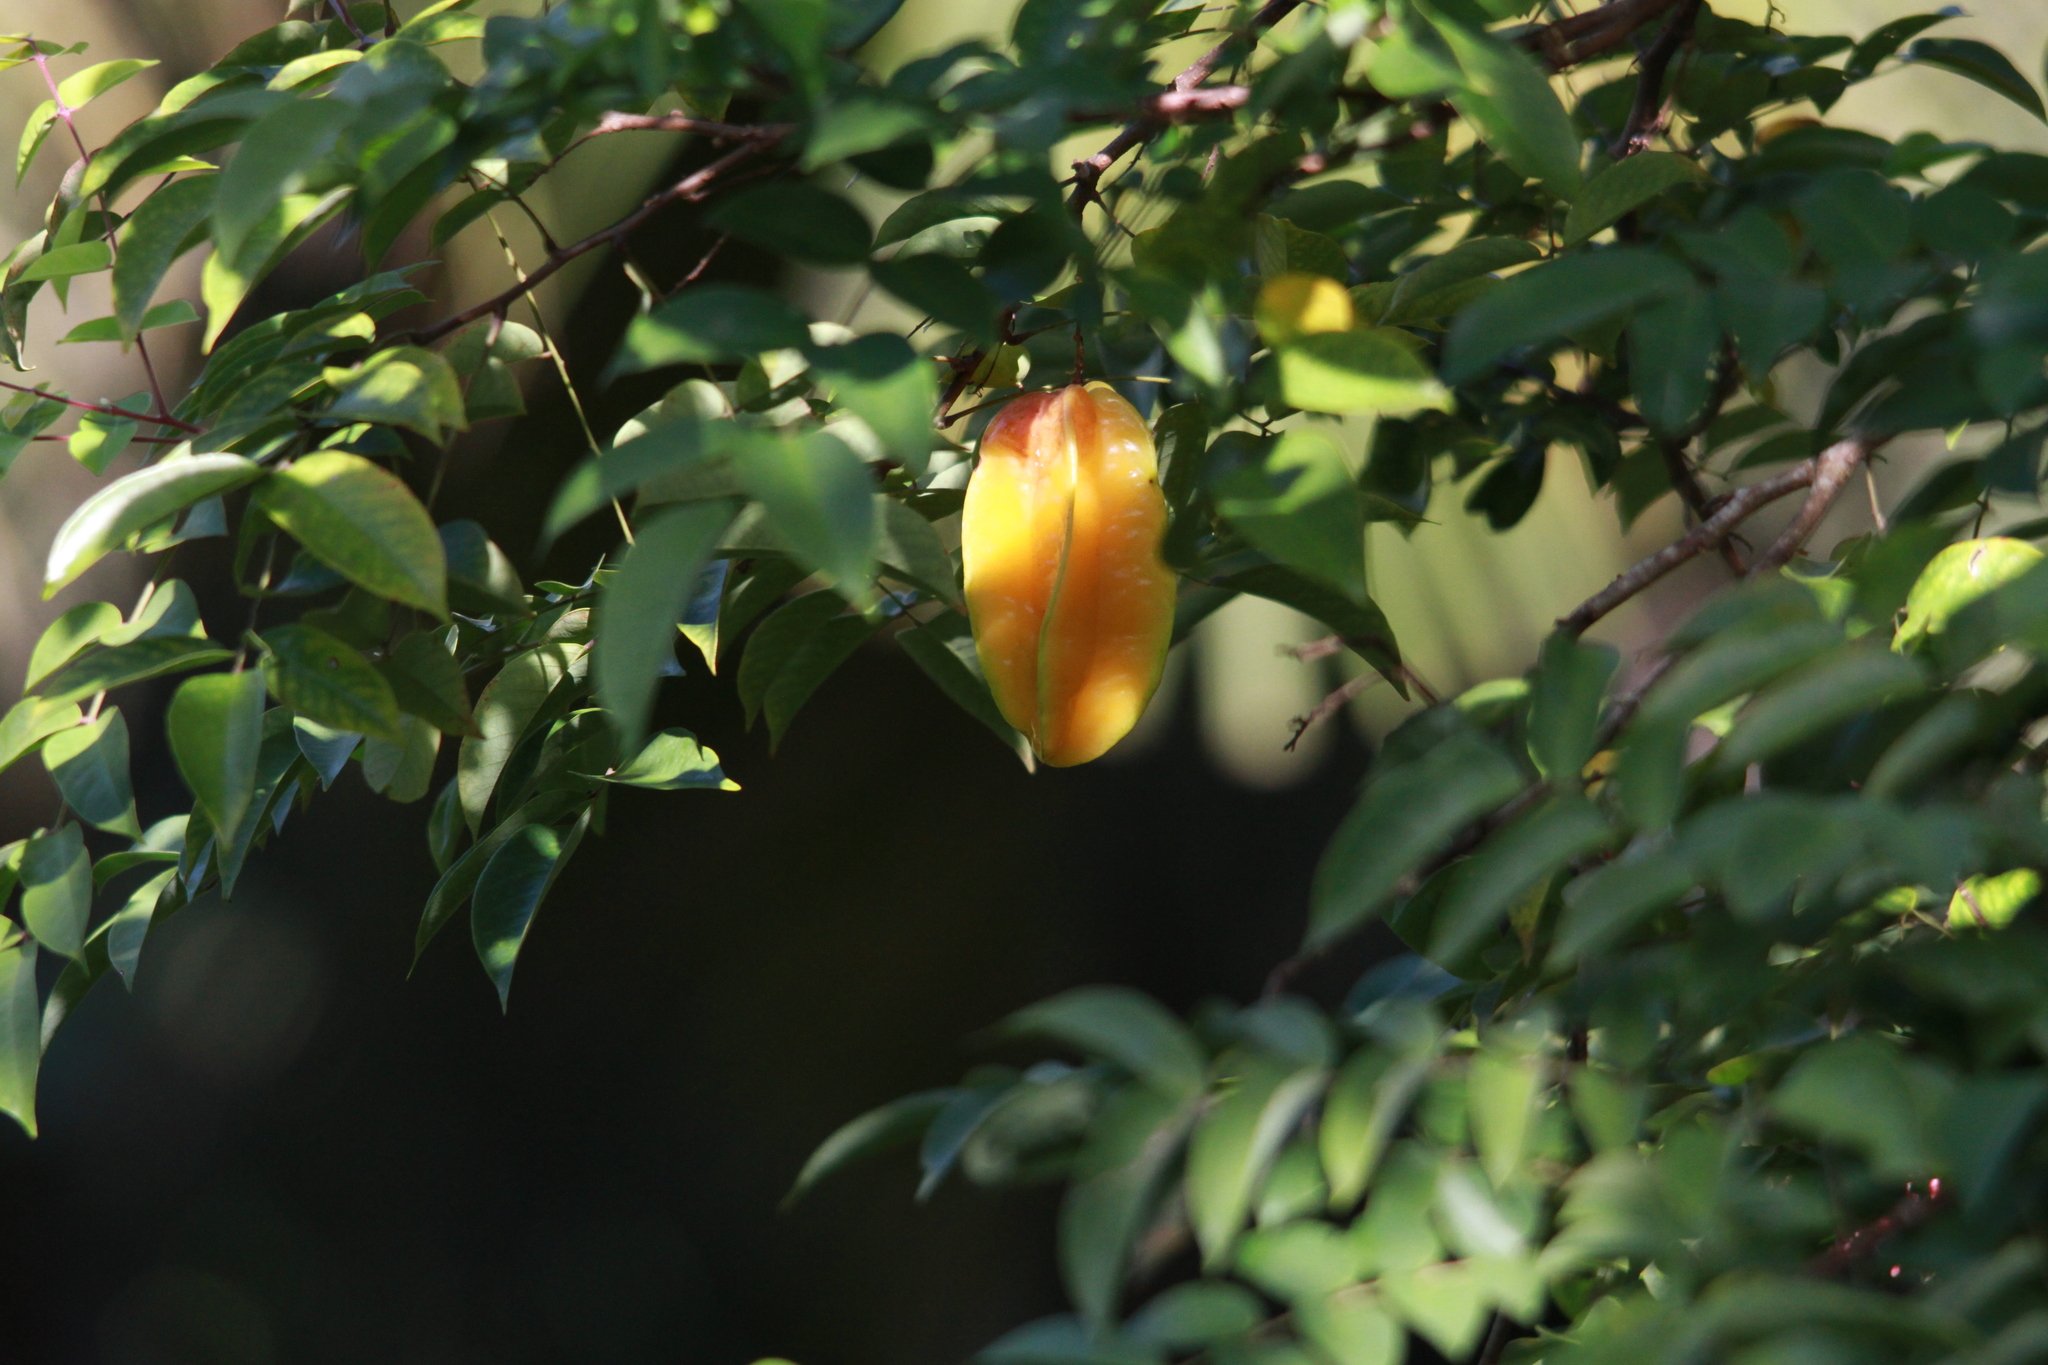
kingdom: Plantae
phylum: Tracheophyta
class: Magnoliopsida
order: Oxalidales
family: Oxalidaceae
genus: Averrhoa
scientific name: Averrhoa carambola
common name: Blimbing
